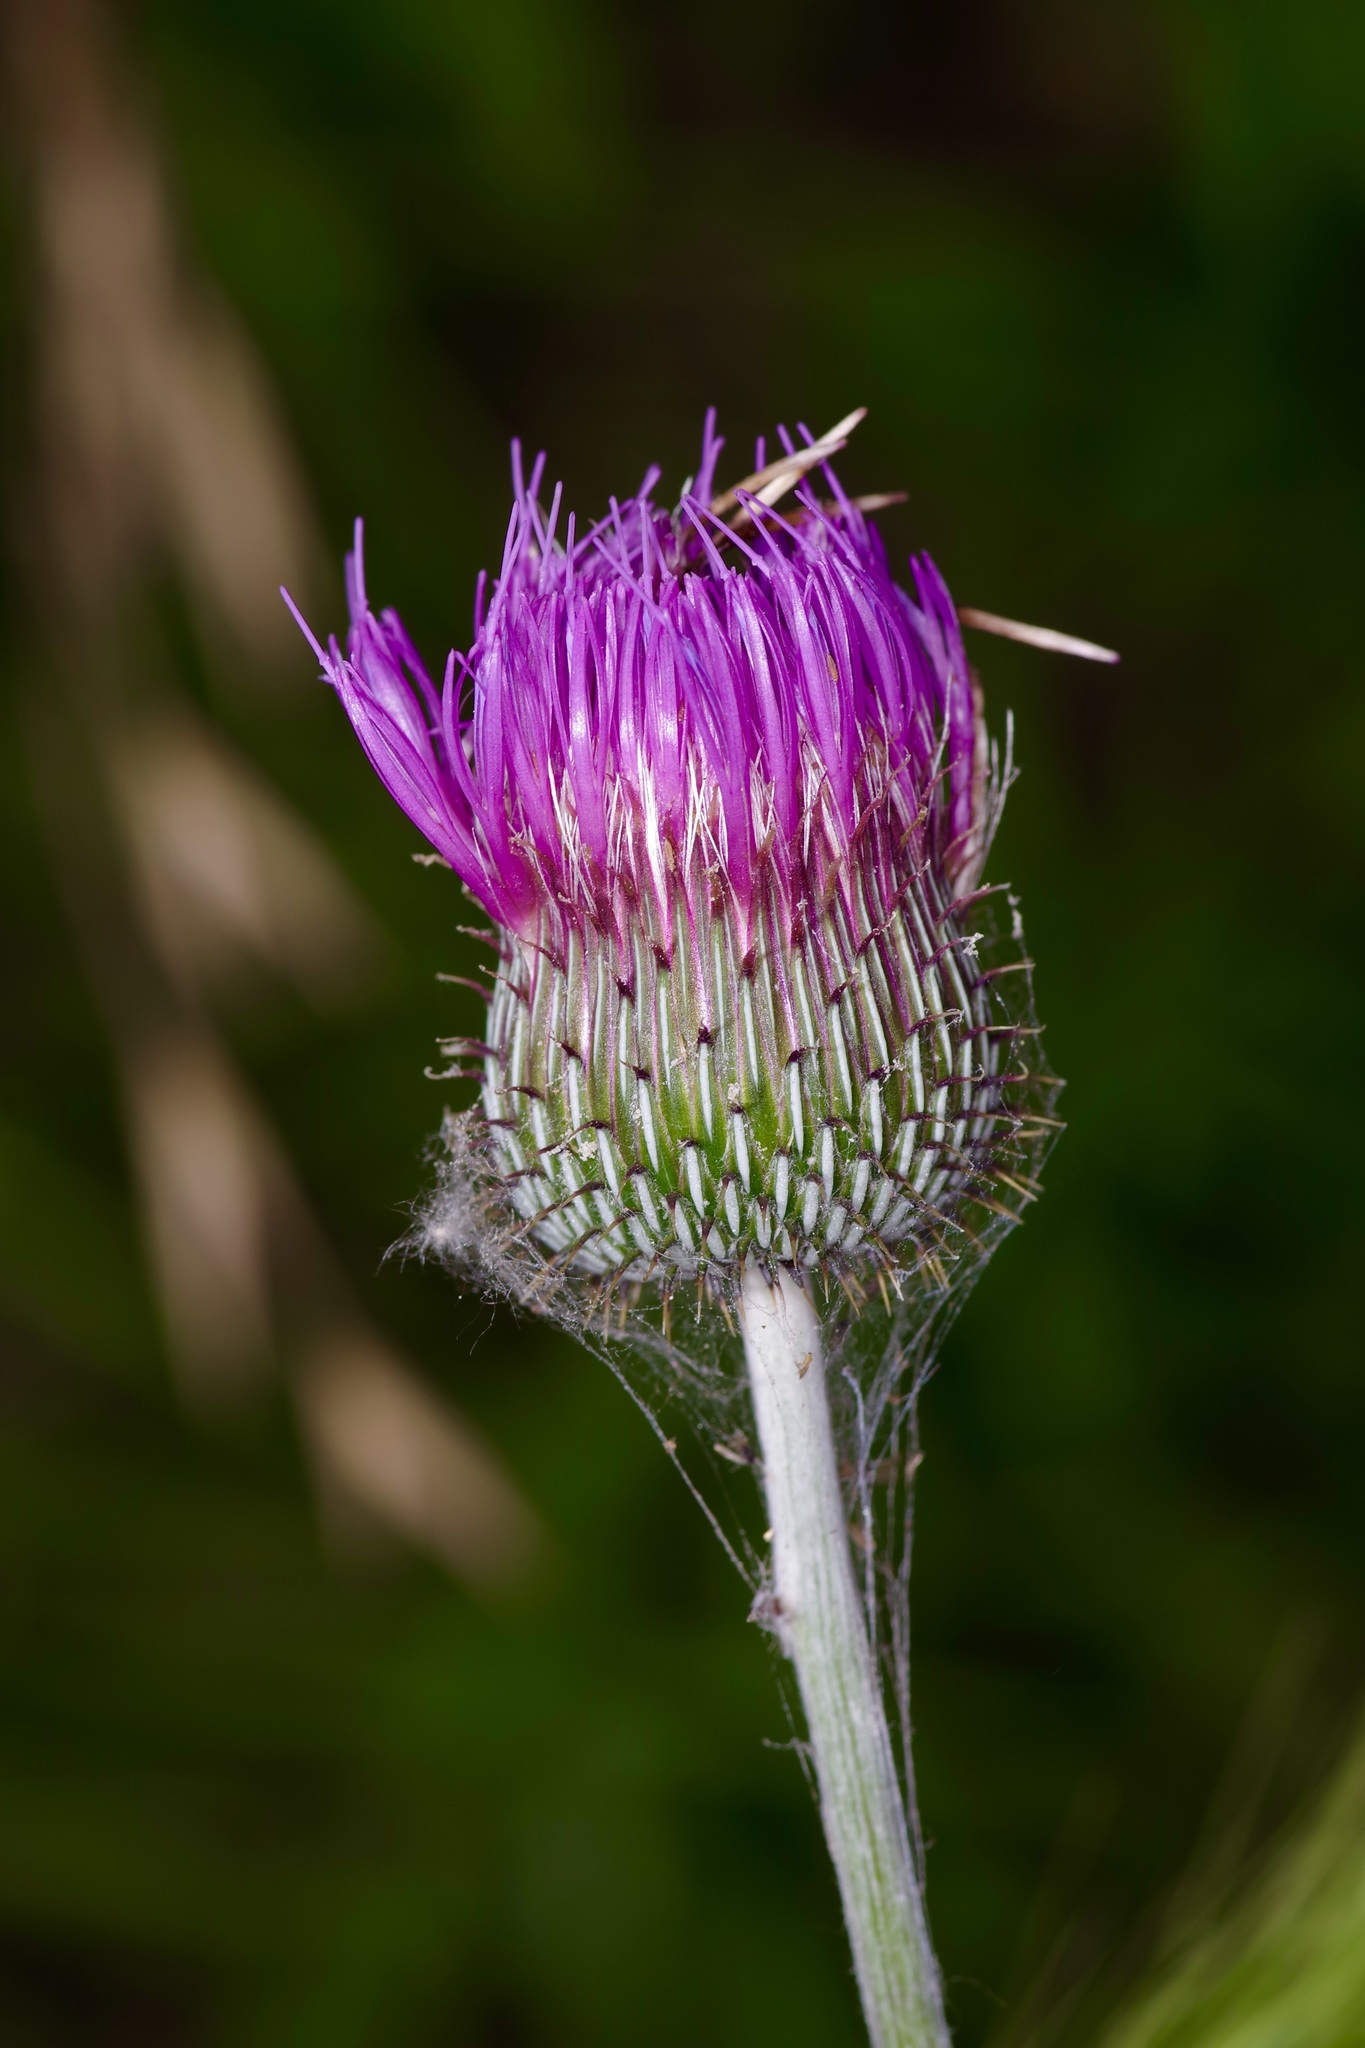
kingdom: Plantae
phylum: Tracheophyta
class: Magnoliopsida
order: Asterales
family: Asteraceae
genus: Cirsium
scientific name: Cirsium texanum
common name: Texas purple thistle
